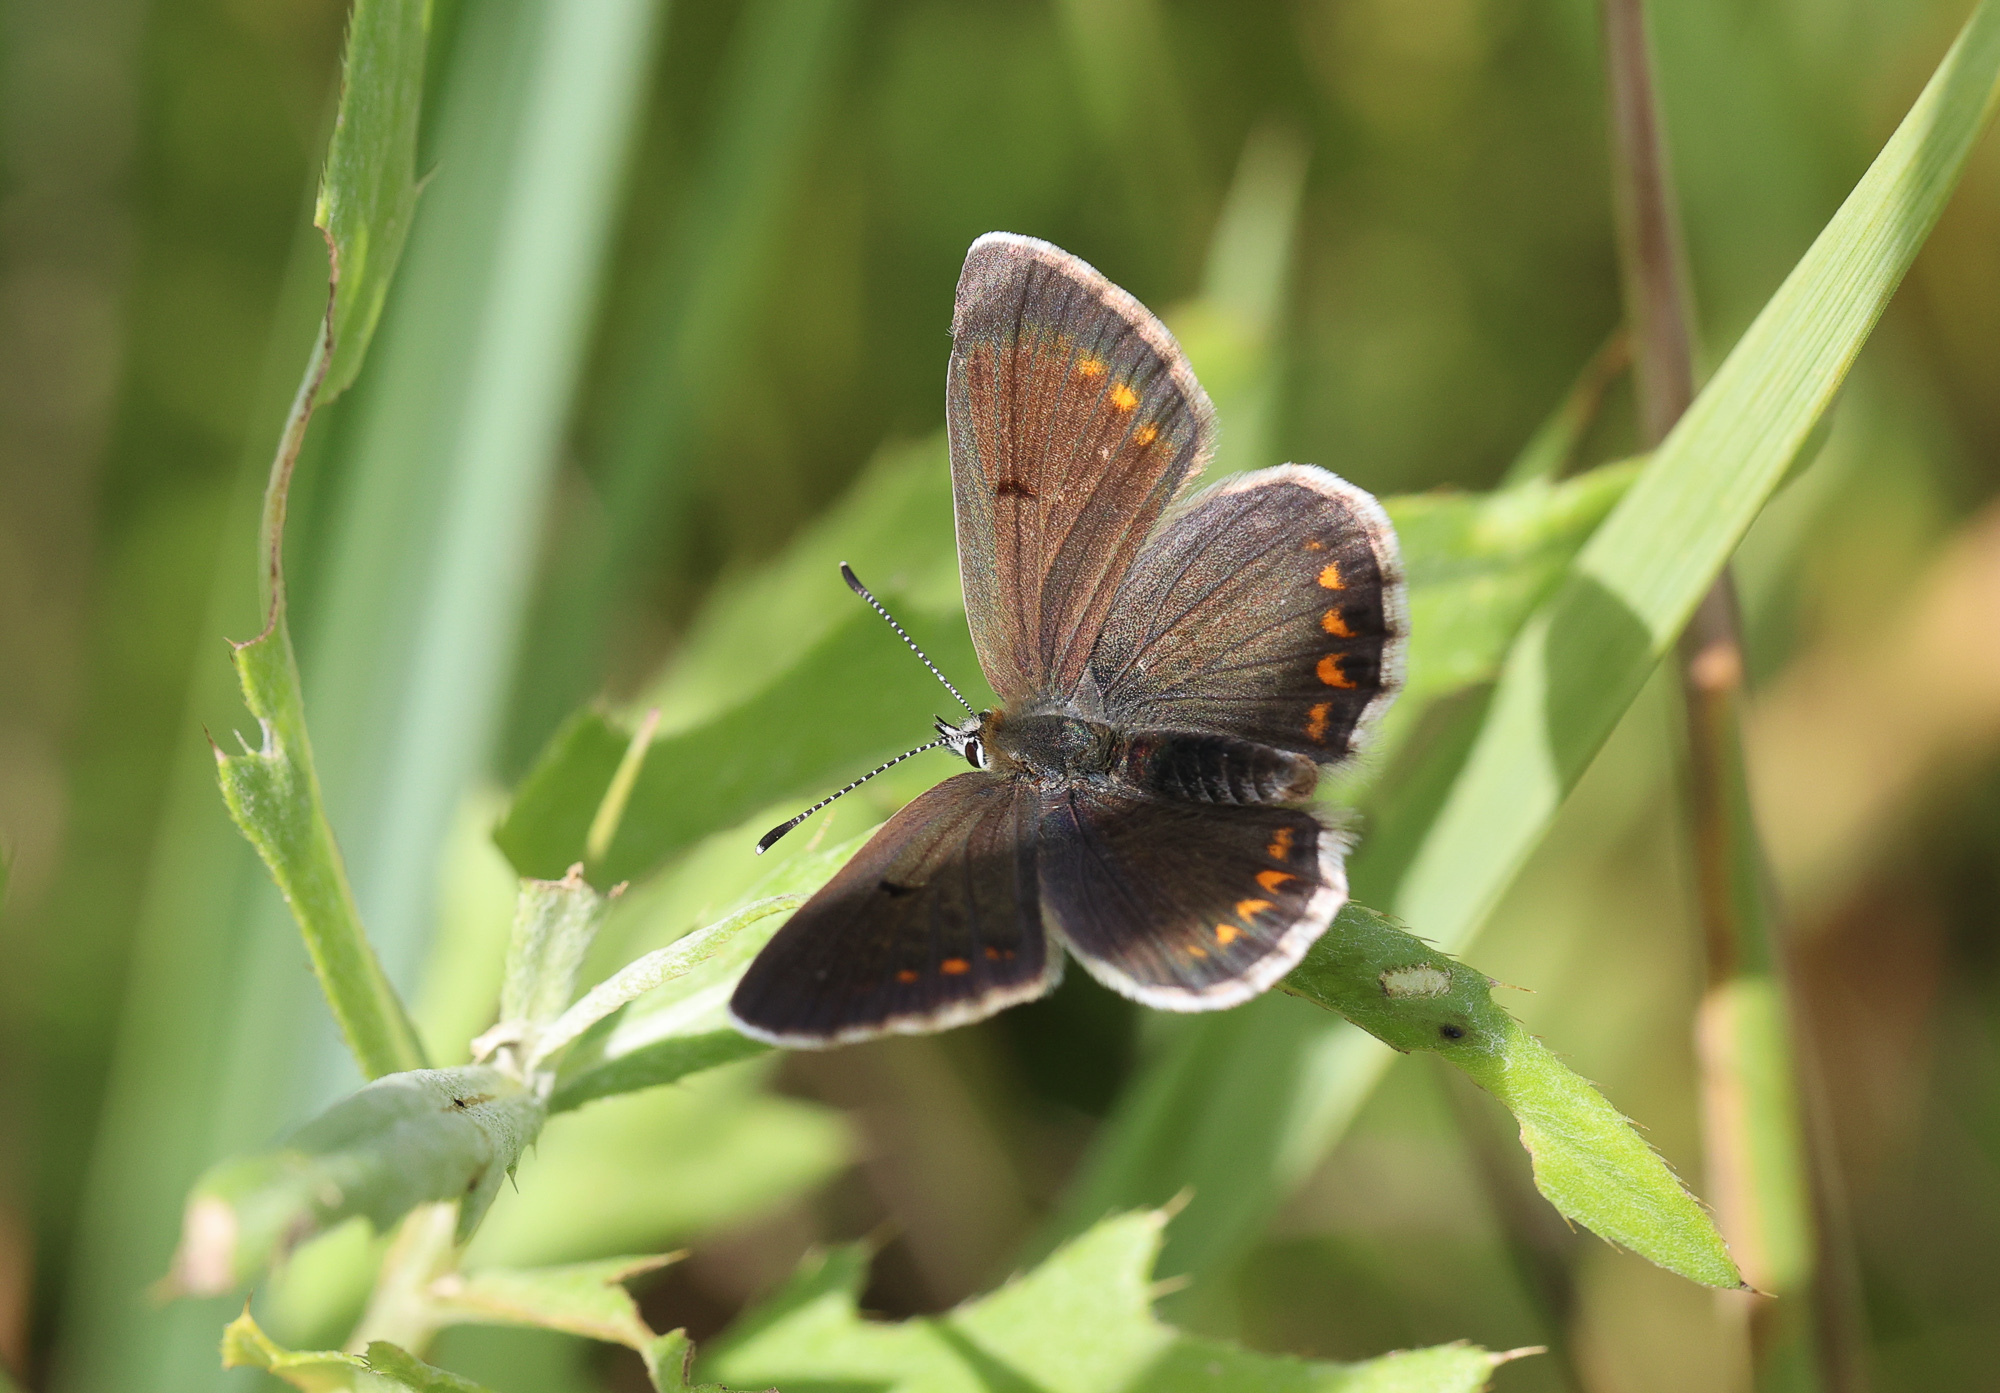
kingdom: Animalia
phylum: Arthropoda
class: Insecta
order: Lepidoptera
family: Lycaenidae
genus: Aricia
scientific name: Aricia artaxerxes
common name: Northern brown argus
